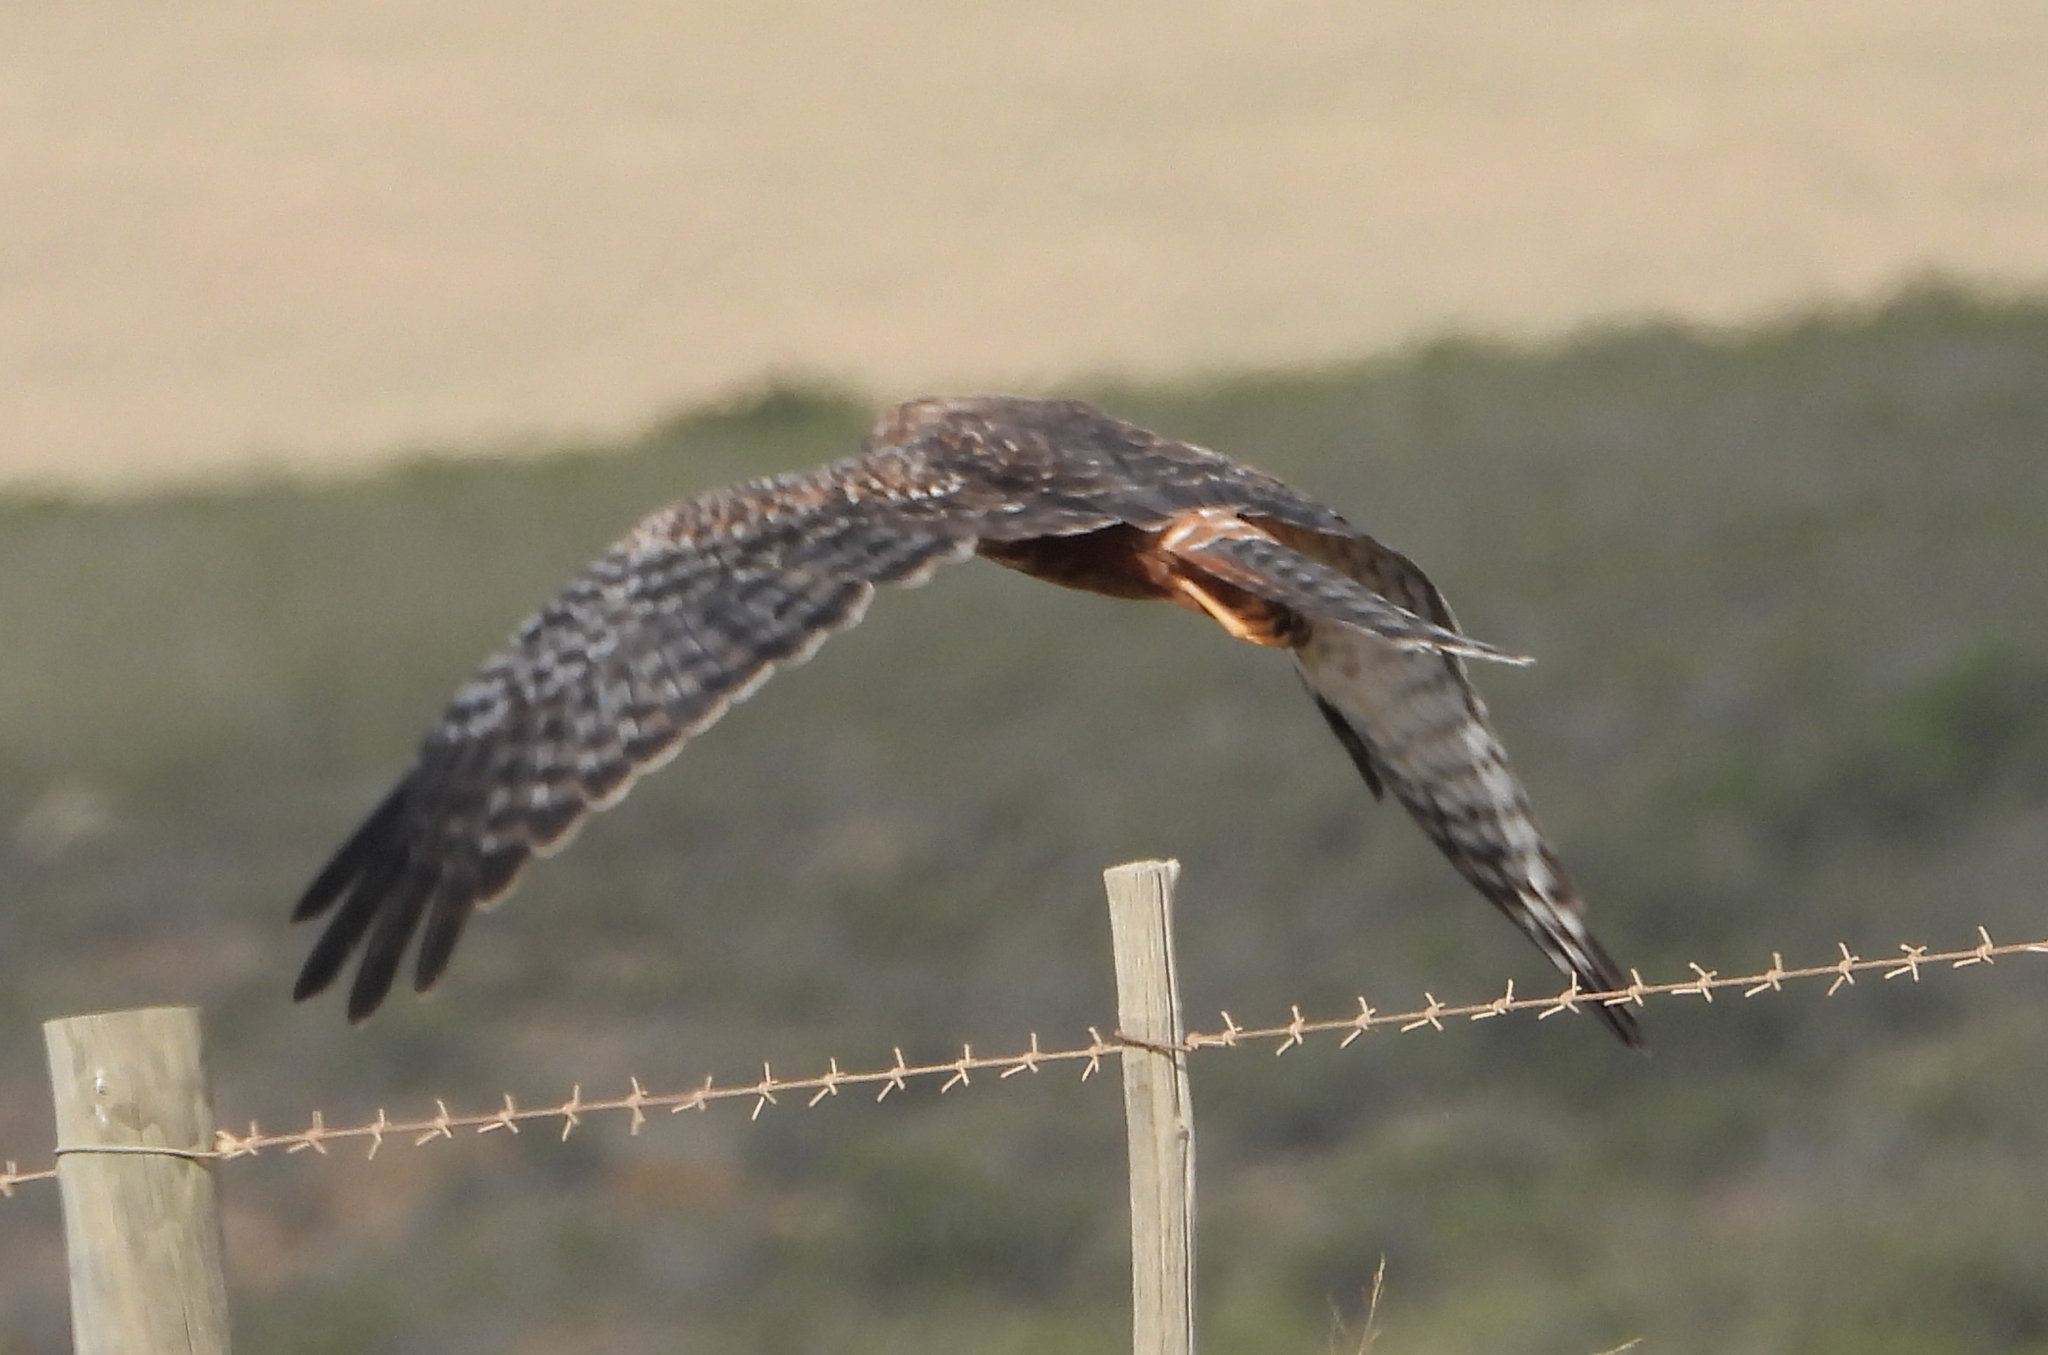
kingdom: Animalia
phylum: Chordata
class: Aves
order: Accipitriformes
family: Accipitridae
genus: Circus
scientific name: Circus ranivorus
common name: African marsh-harrier
